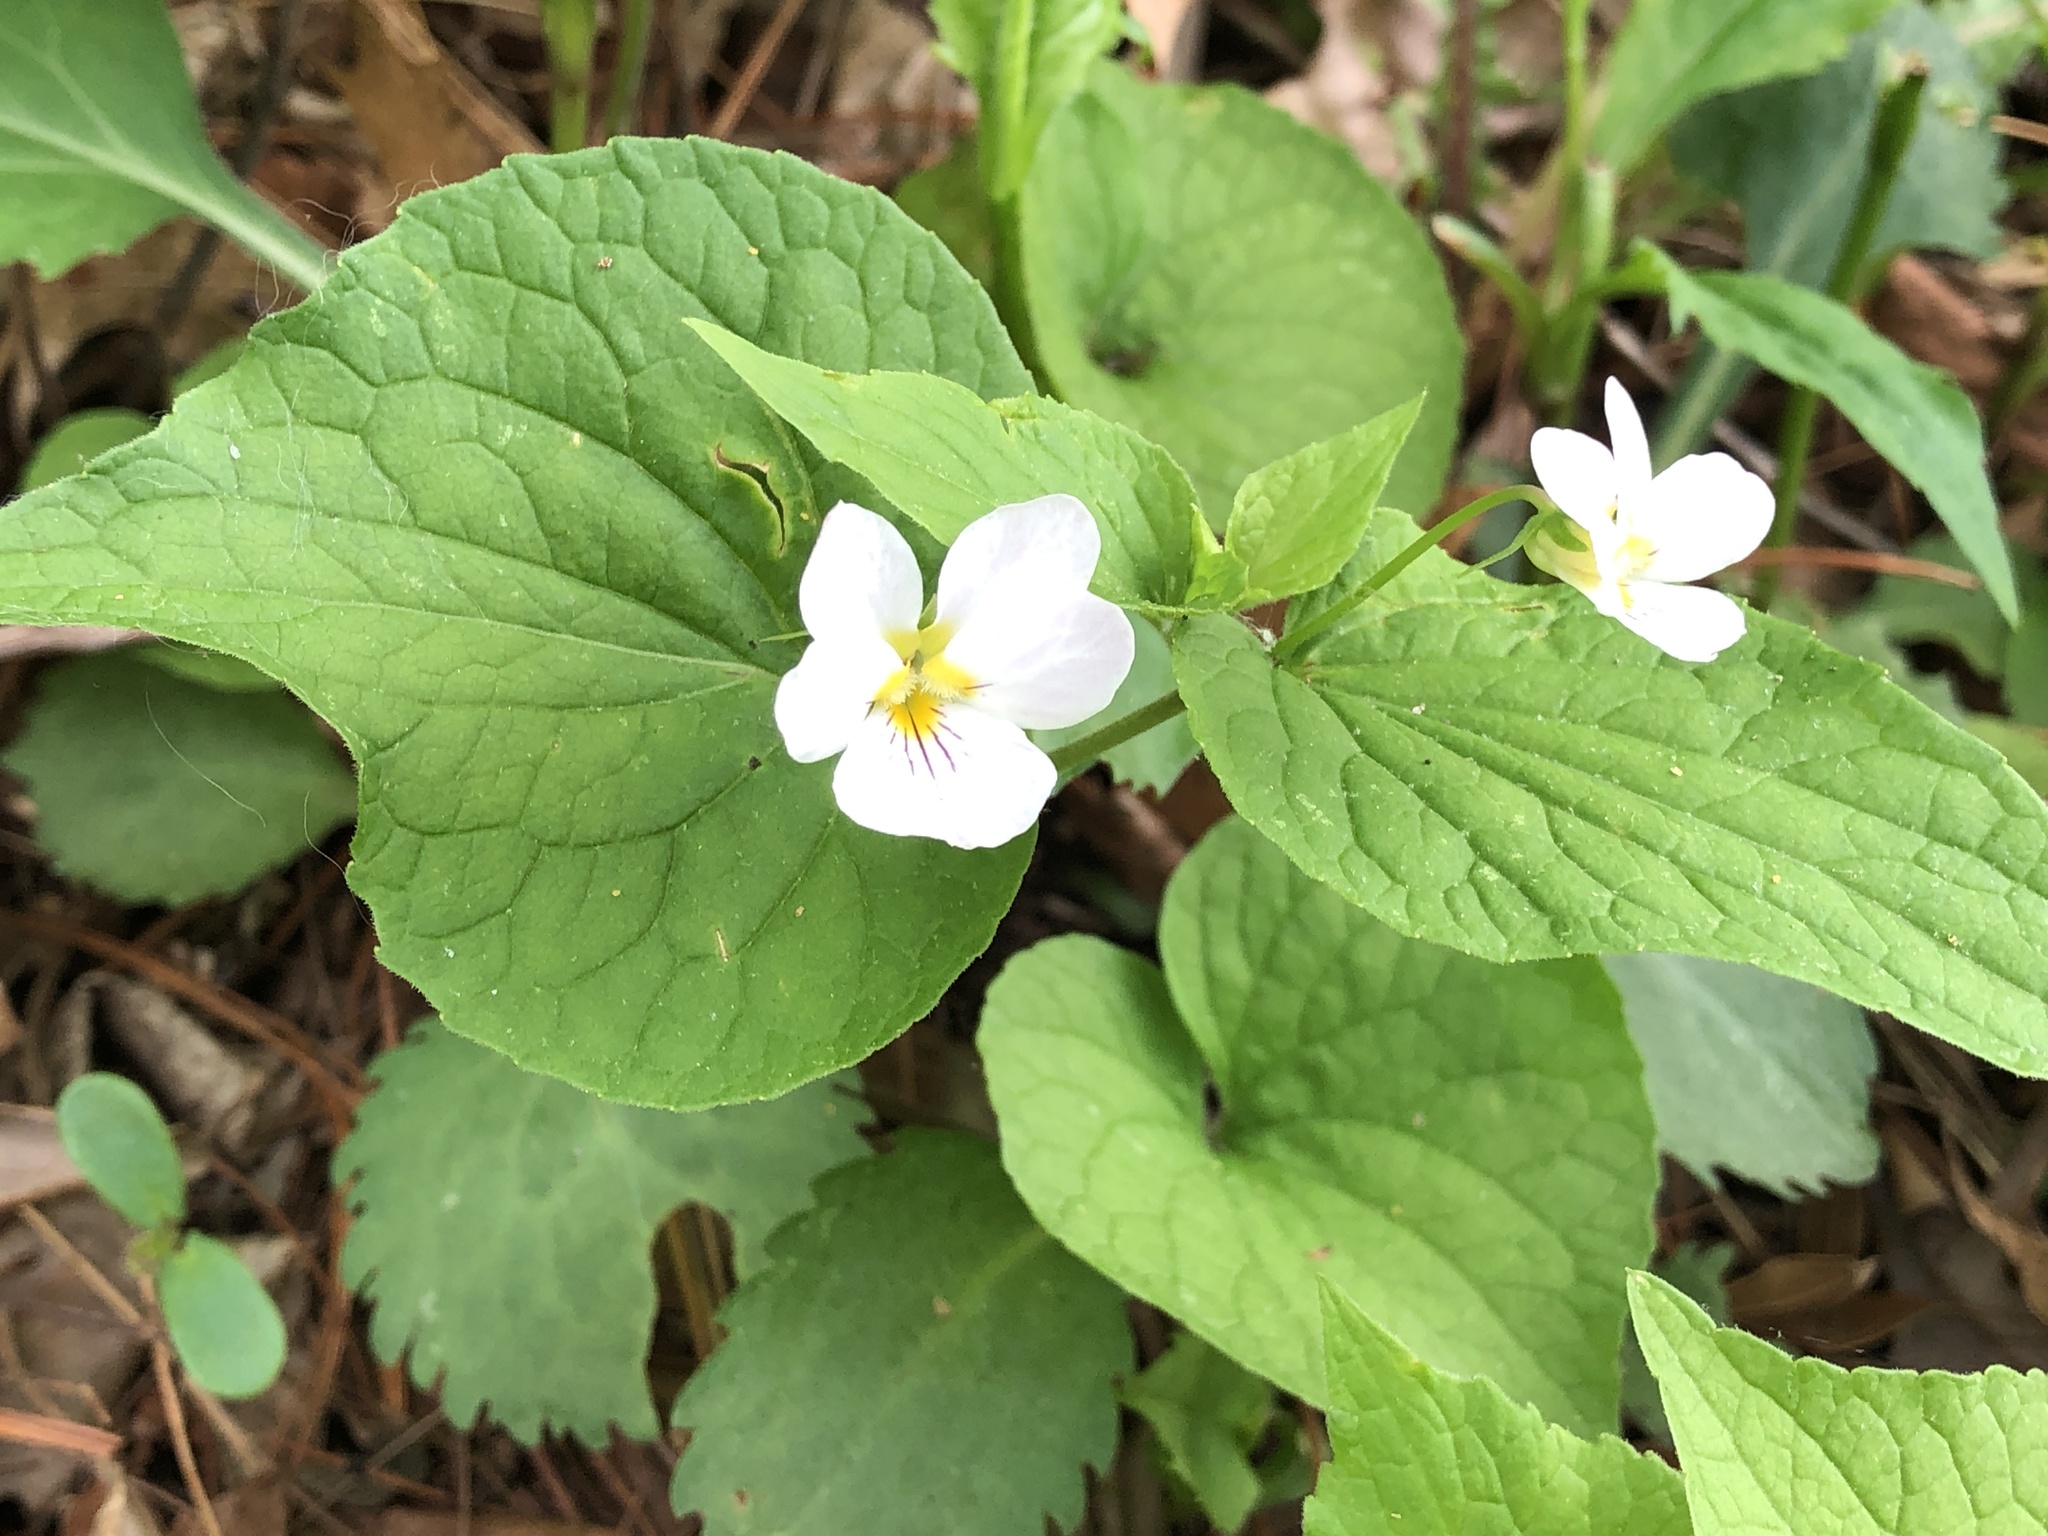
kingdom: Plantae
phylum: Tracheophyta
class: Magnoliopsida
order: Malpighiales
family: Violaceae
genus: Viola
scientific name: Viola canadensis
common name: Canada violet
